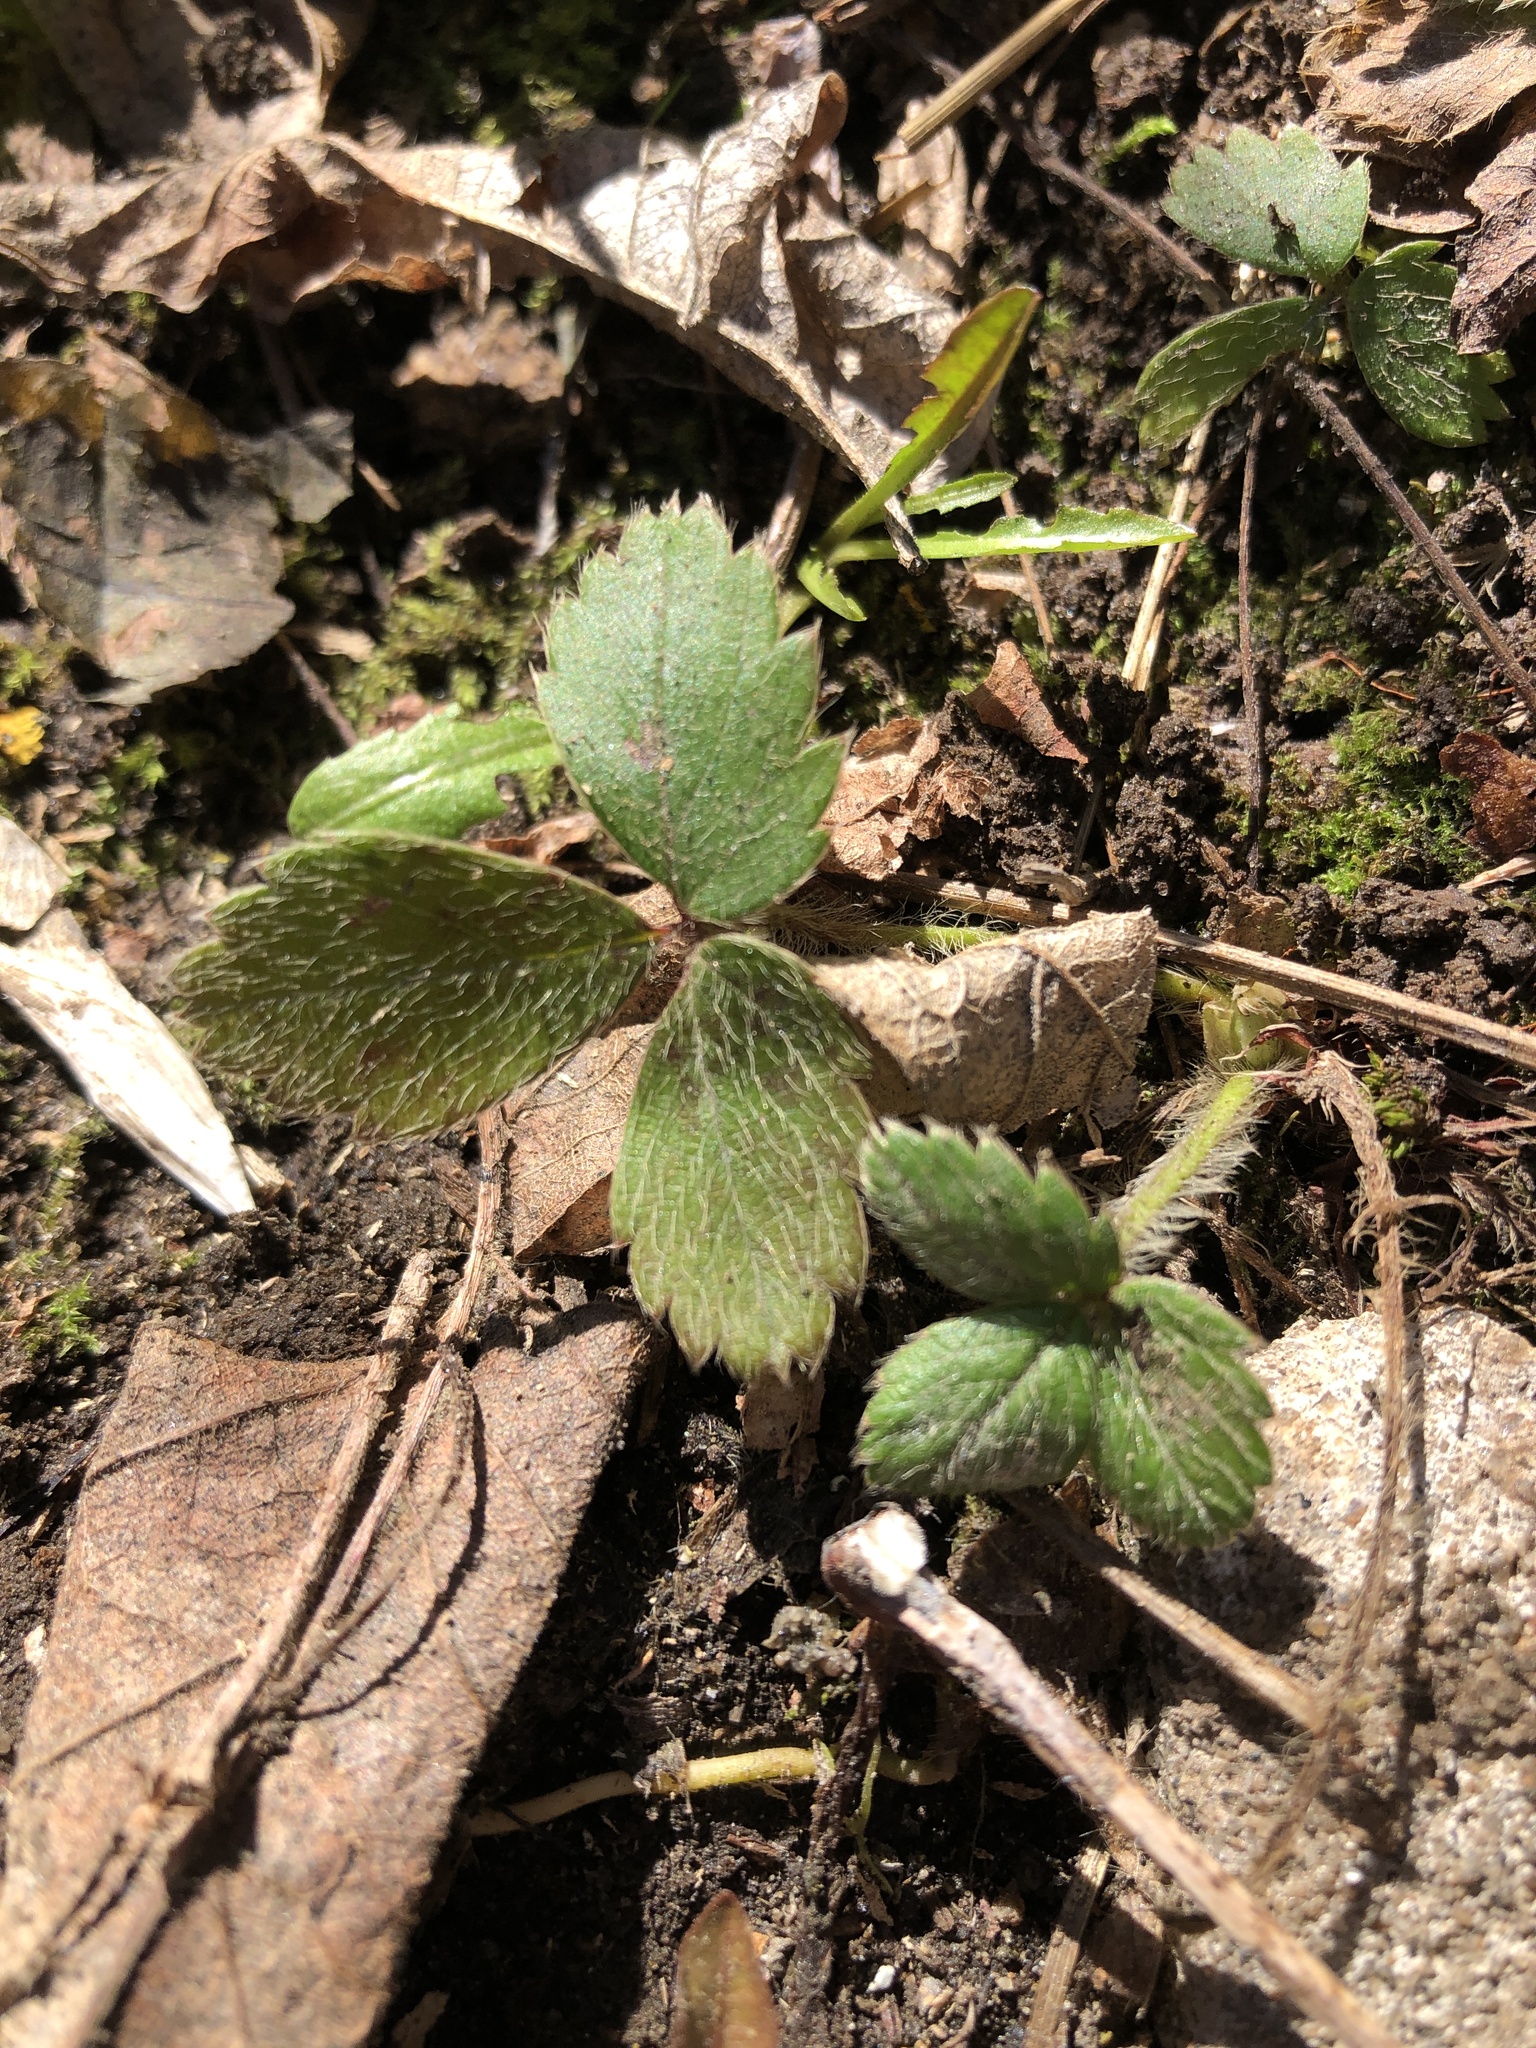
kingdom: Plantae
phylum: Tracheophyta
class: Magnoliopsida
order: Rosales
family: Rosaceae
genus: Fragaria
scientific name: Fragaria virginiana
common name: Thickleaved wild strawberry
